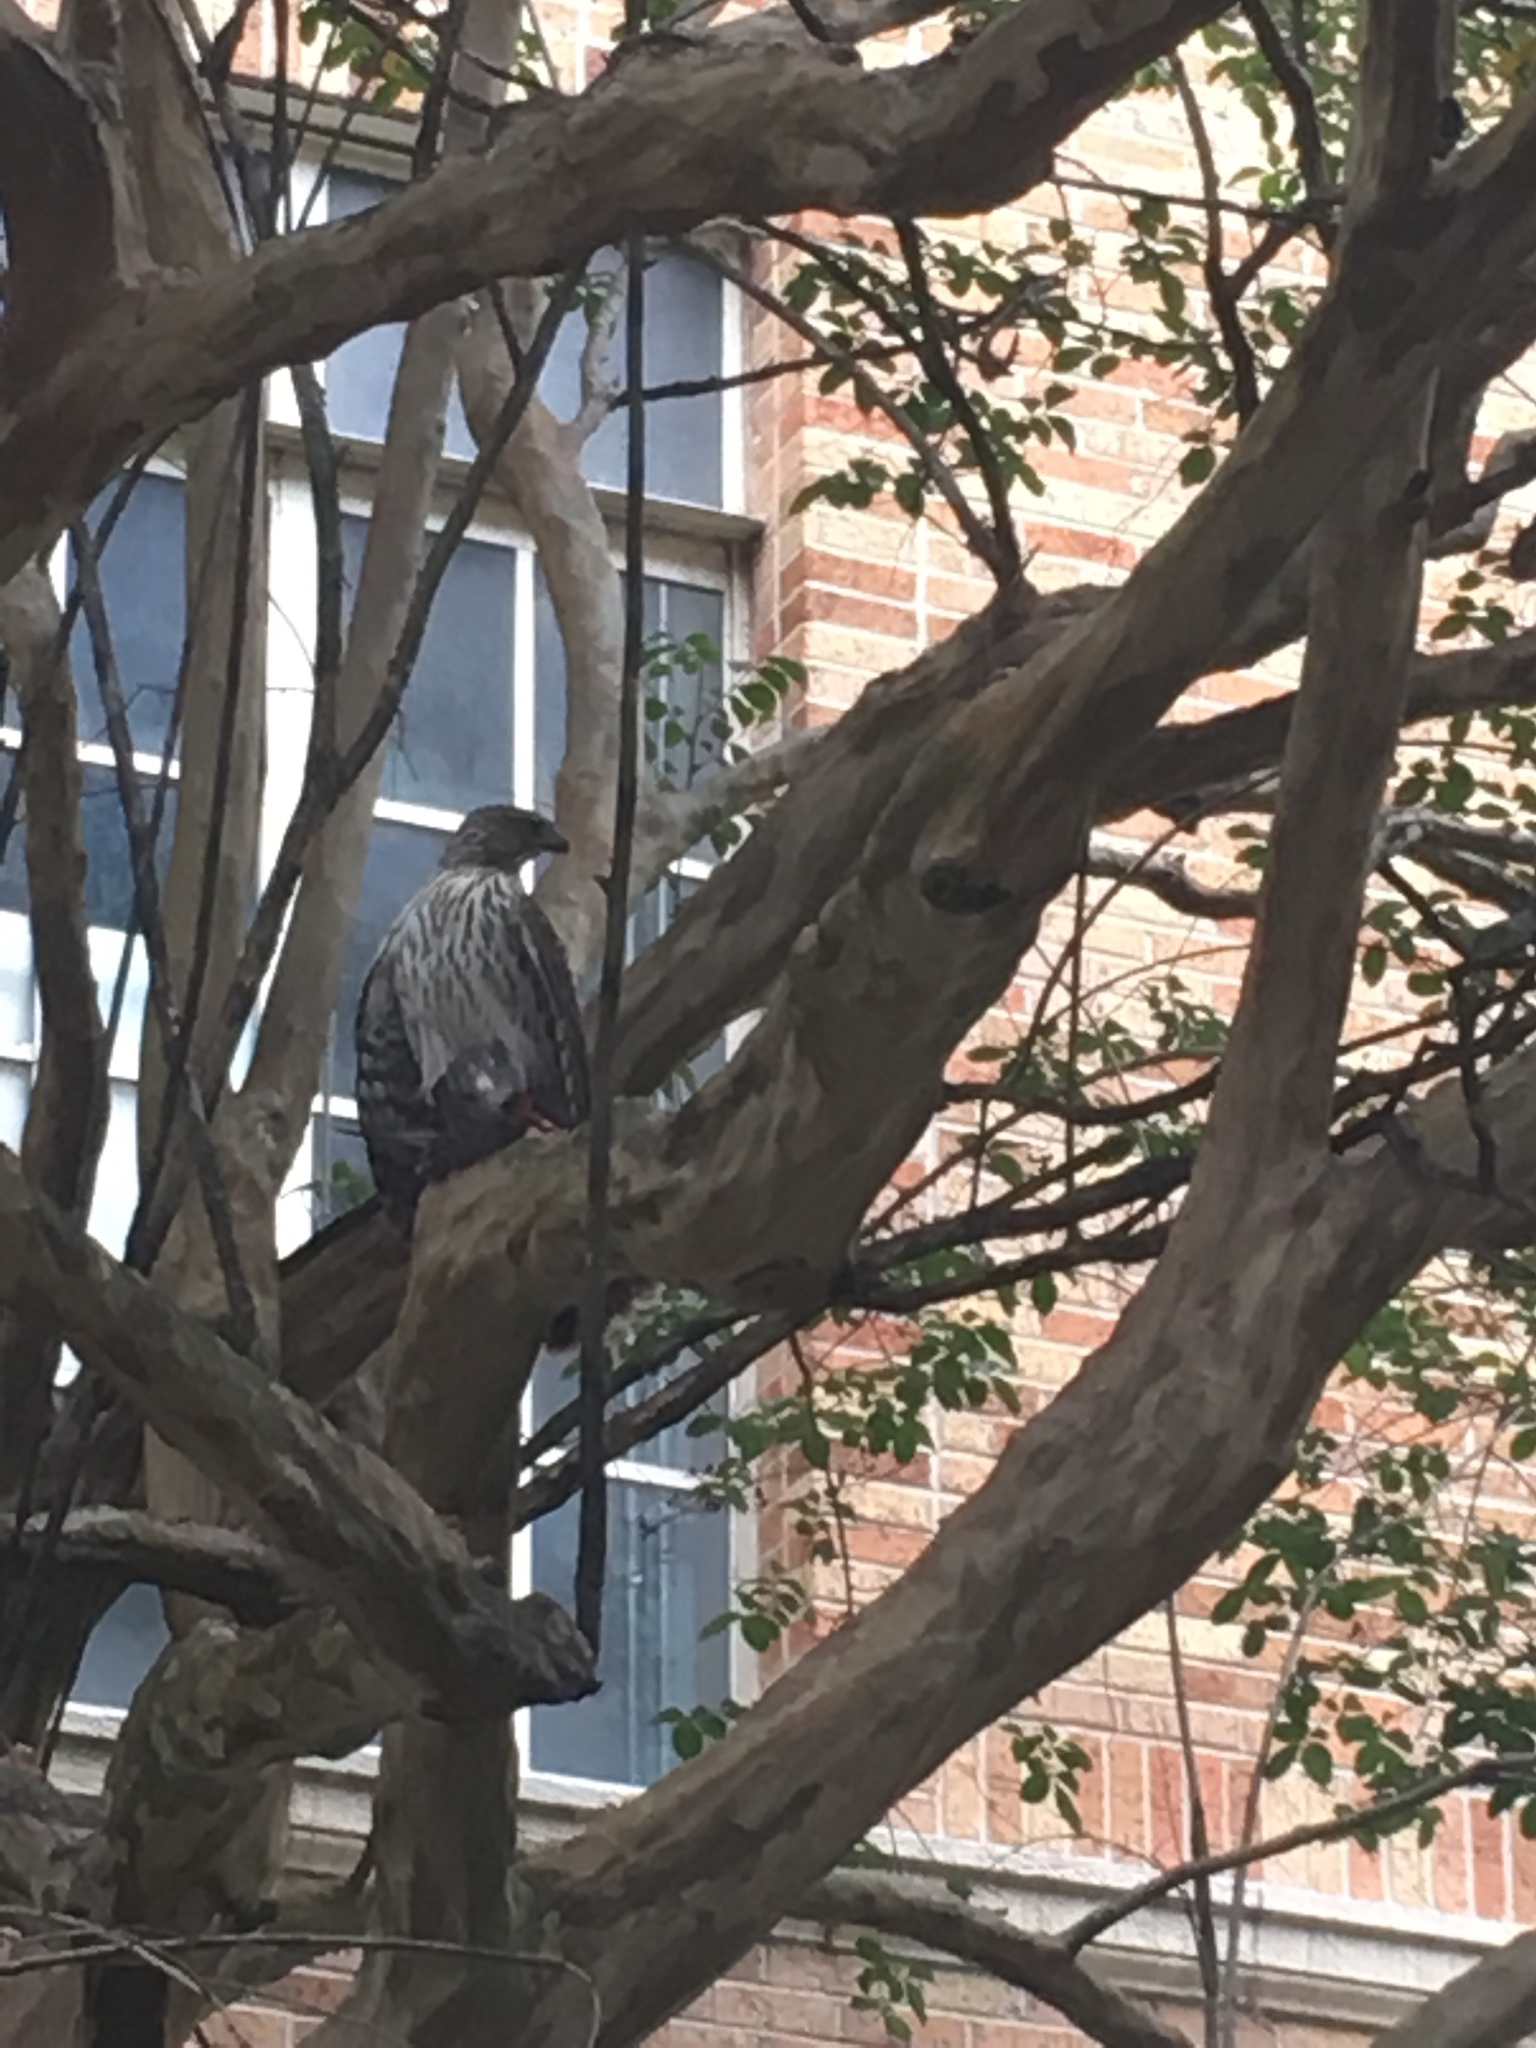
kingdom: Animalia
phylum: Chordata
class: Aves
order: Accipitriformes
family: Accipitridae
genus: Accipiter
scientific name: Accipiter cooperii
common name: Cooper's hawk
